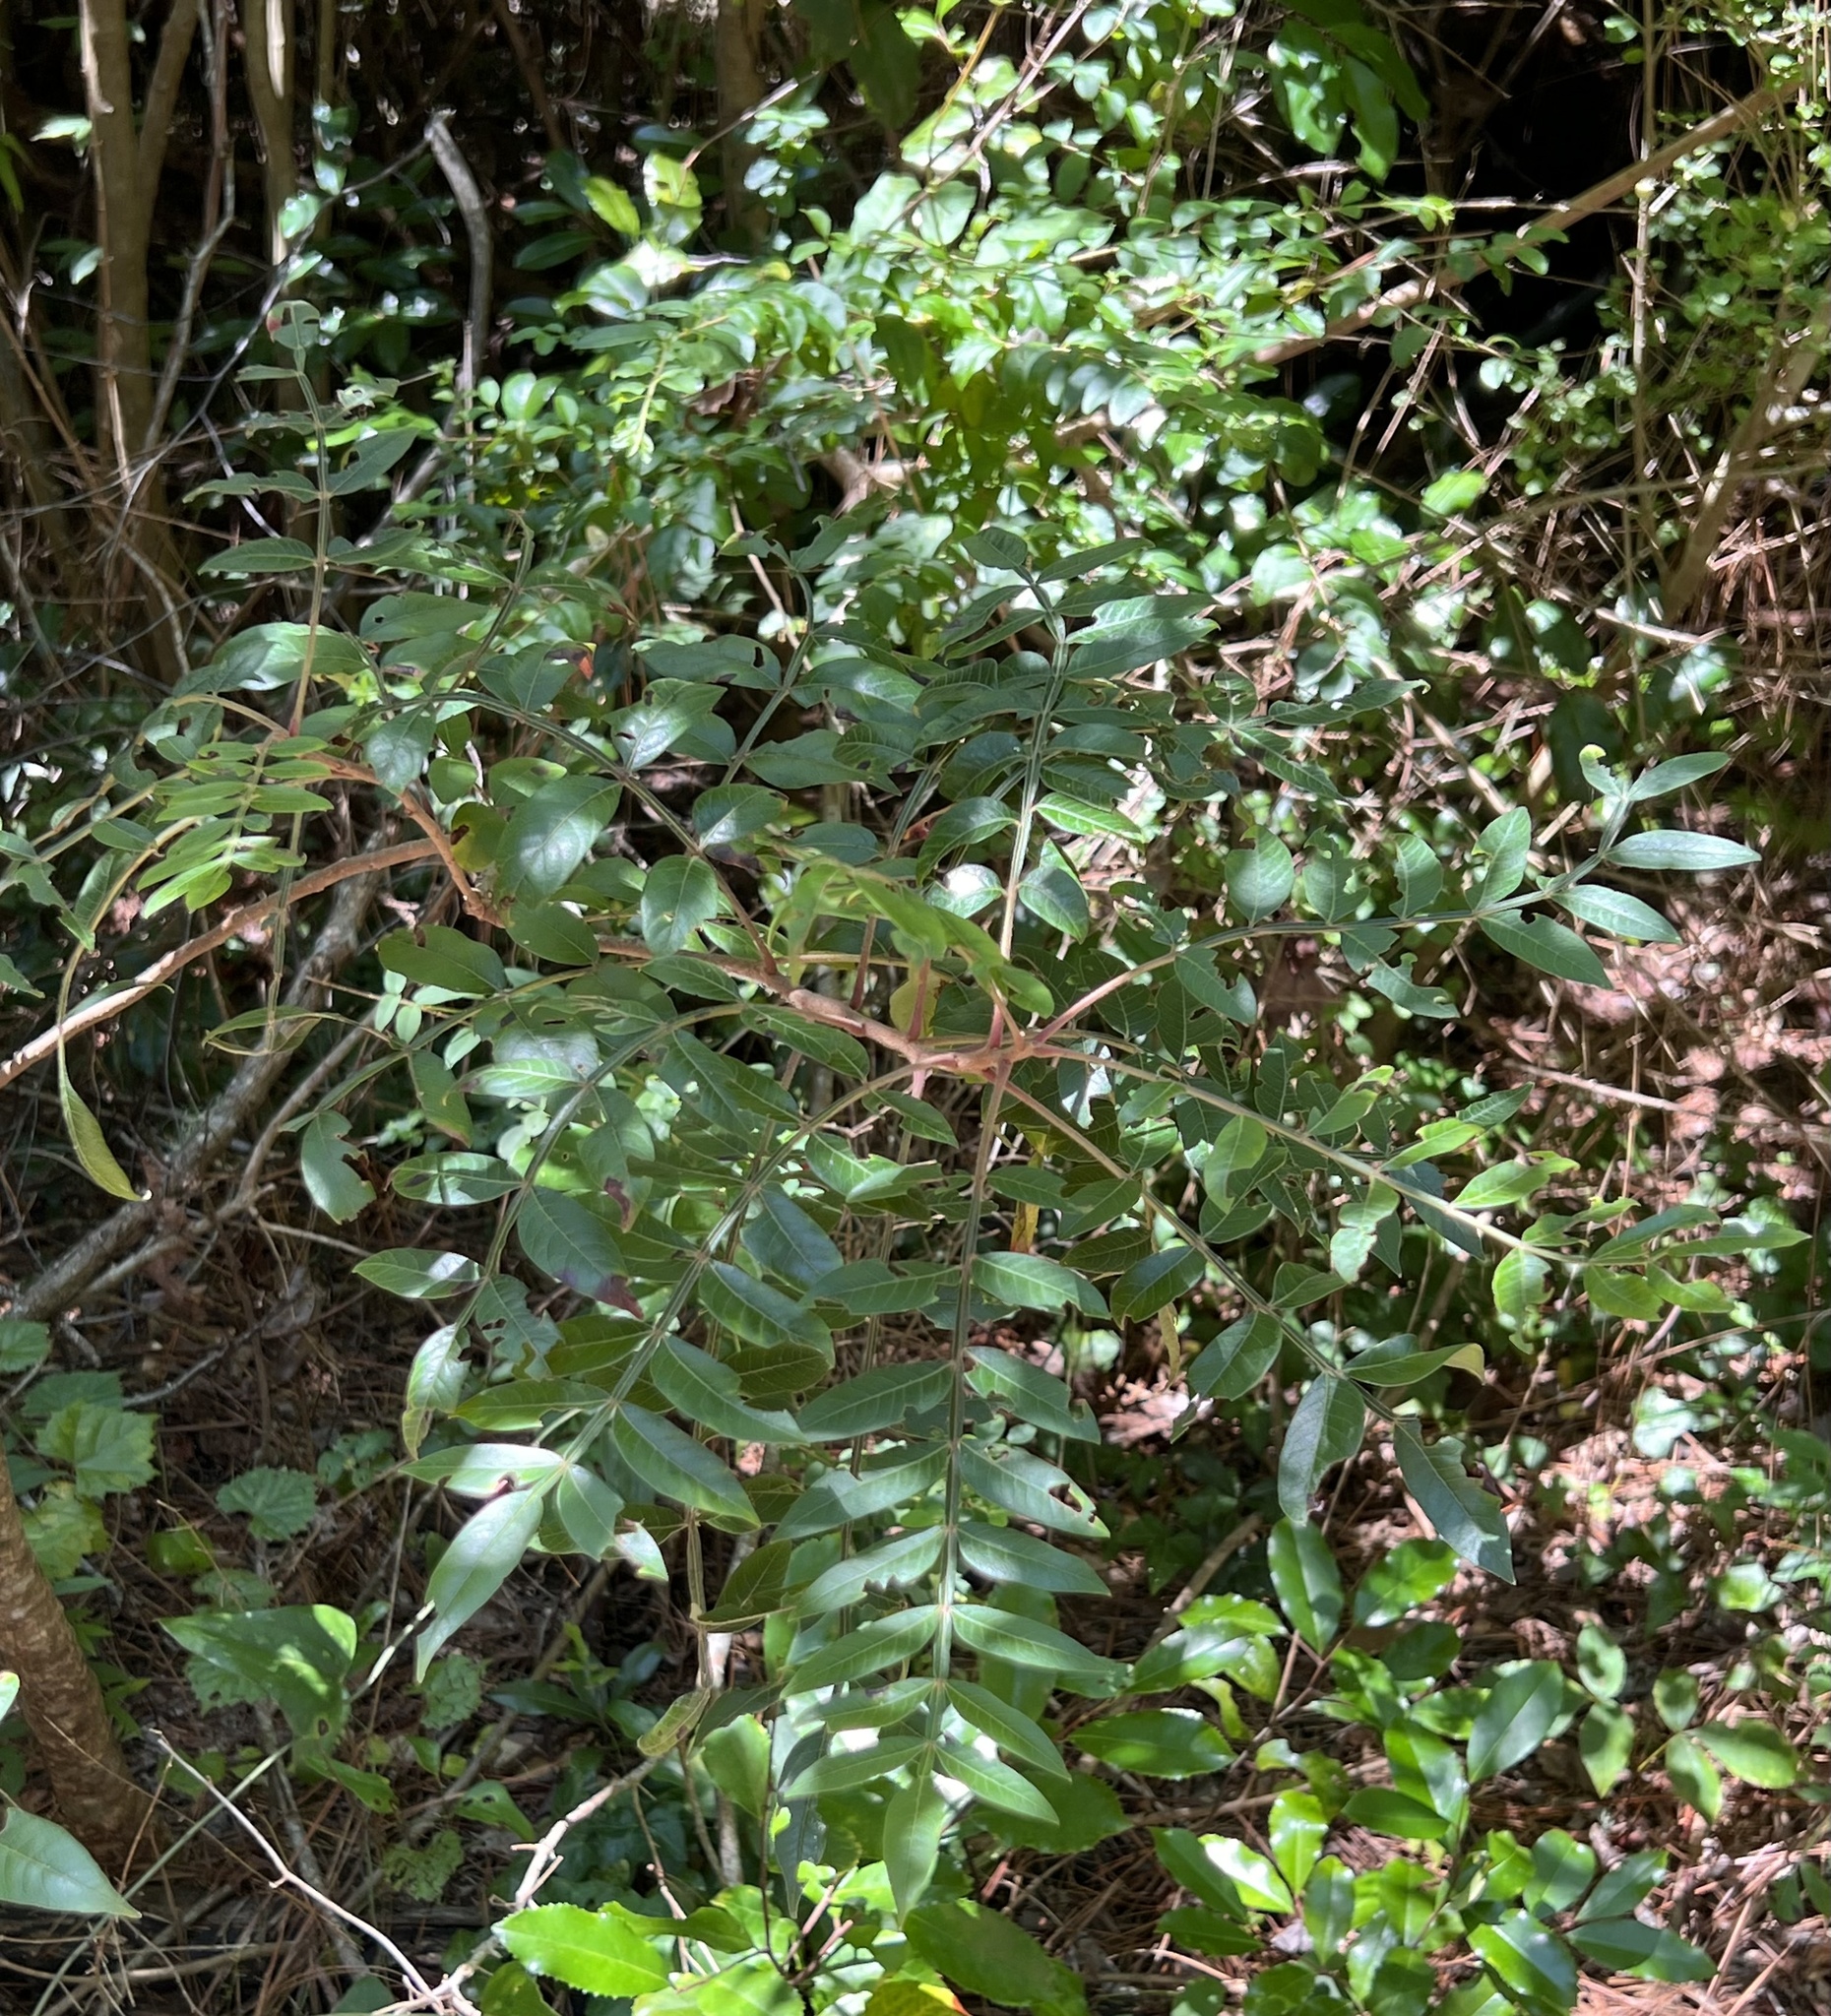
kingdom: Plantae
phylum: Tracheophyta
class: Magnoliopsida
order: Sapindales
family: Anacardiaceae
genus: Rhus
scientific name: Rhus copallina
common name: Shining sumac
